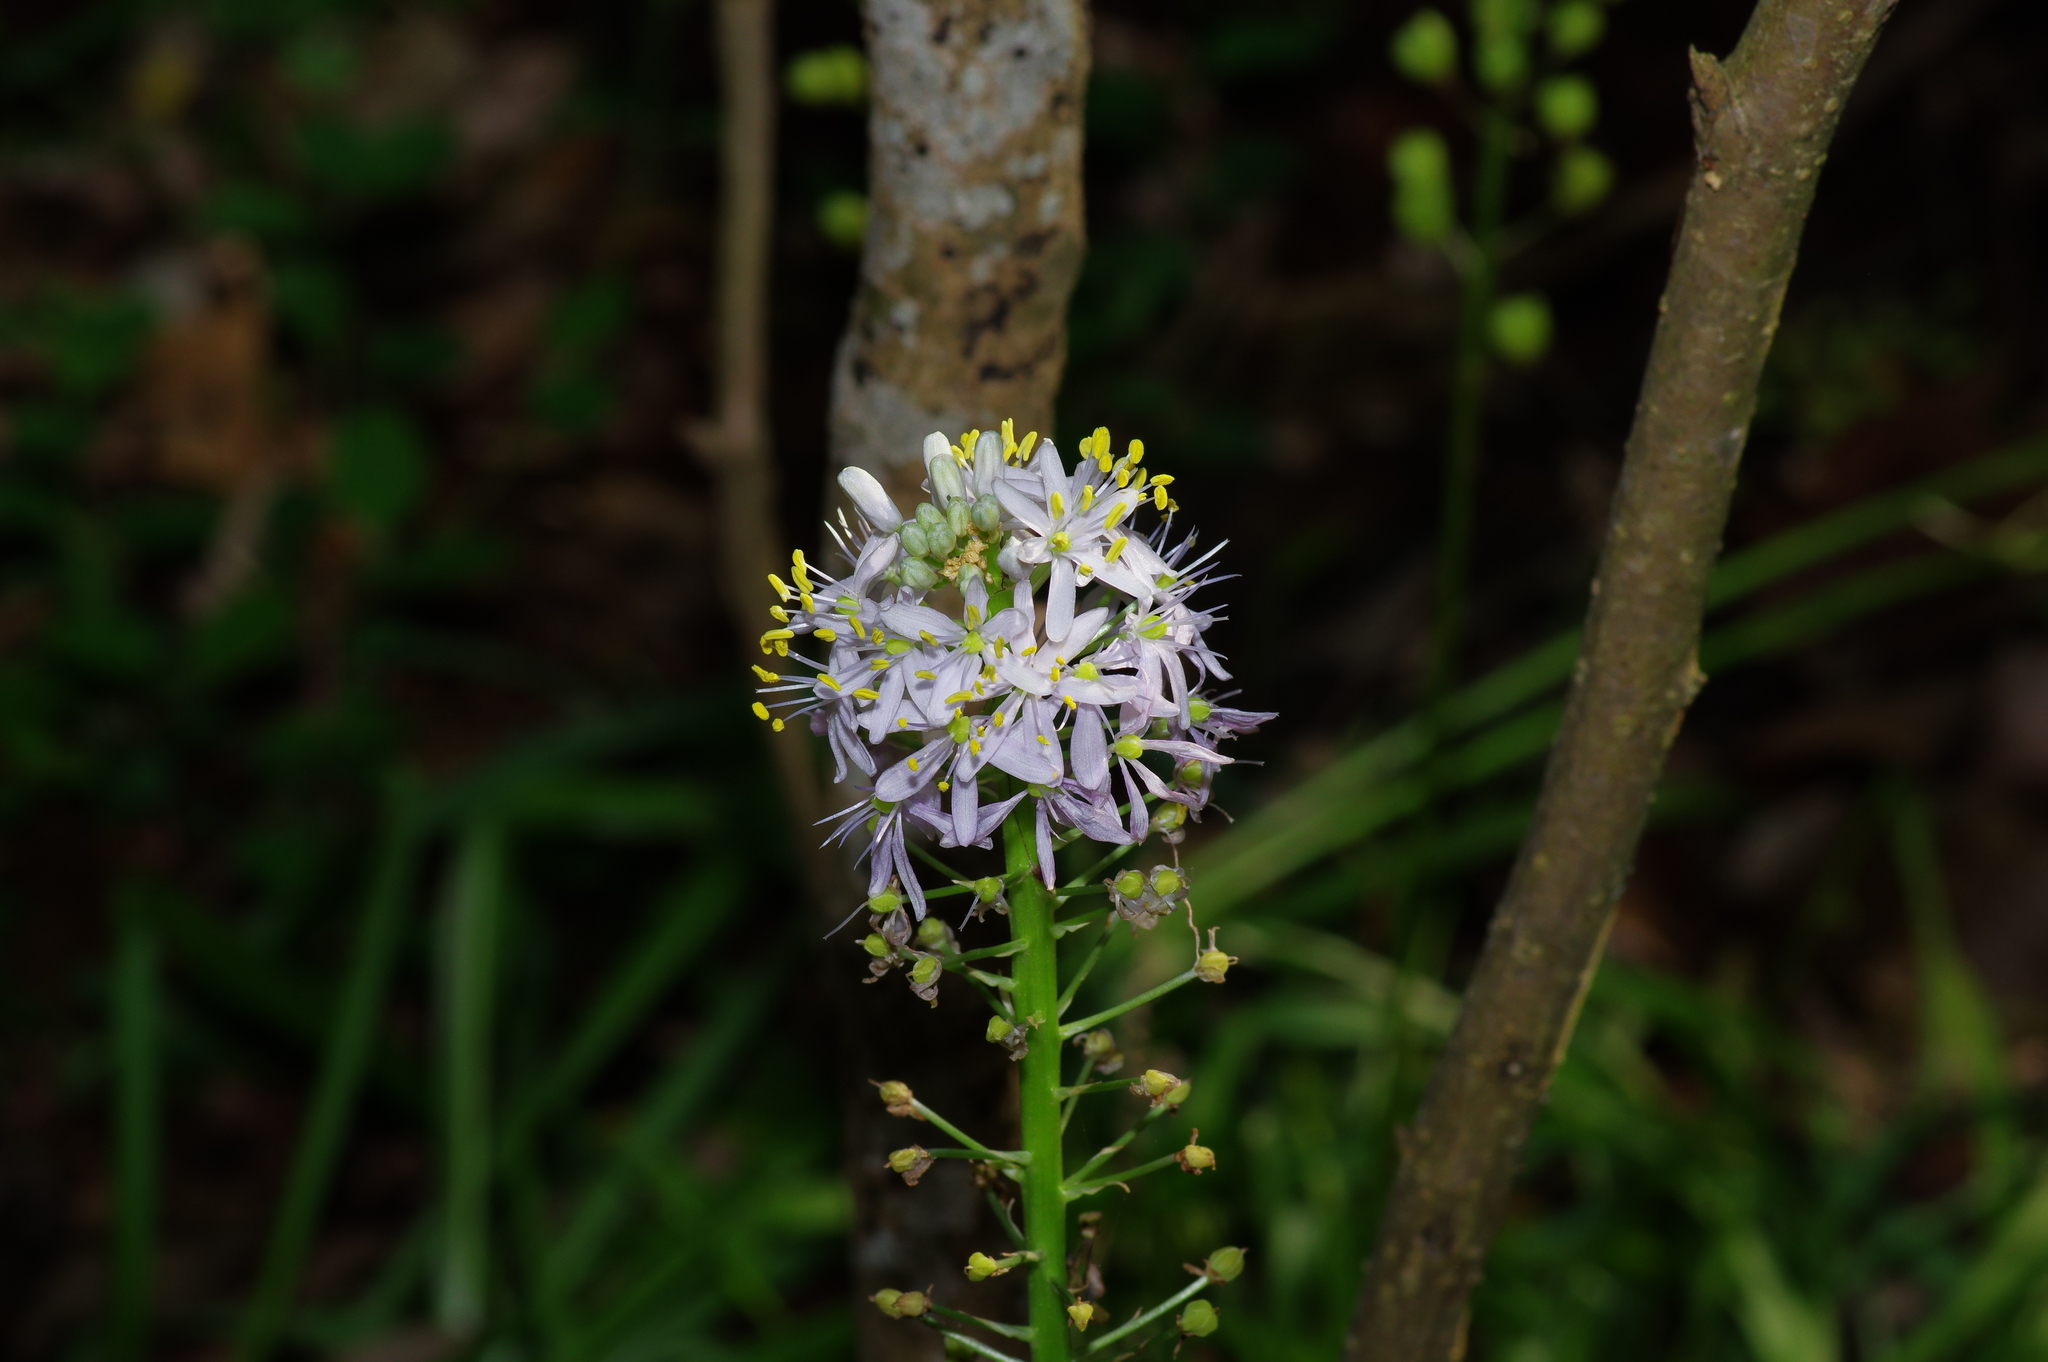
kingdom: Plantae
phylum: Tracheophyta
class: Liliopsida
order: Asparagales
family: Asparagaceae
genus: Camassia
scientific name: Camassia scilloides
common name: Wild hyacinth
